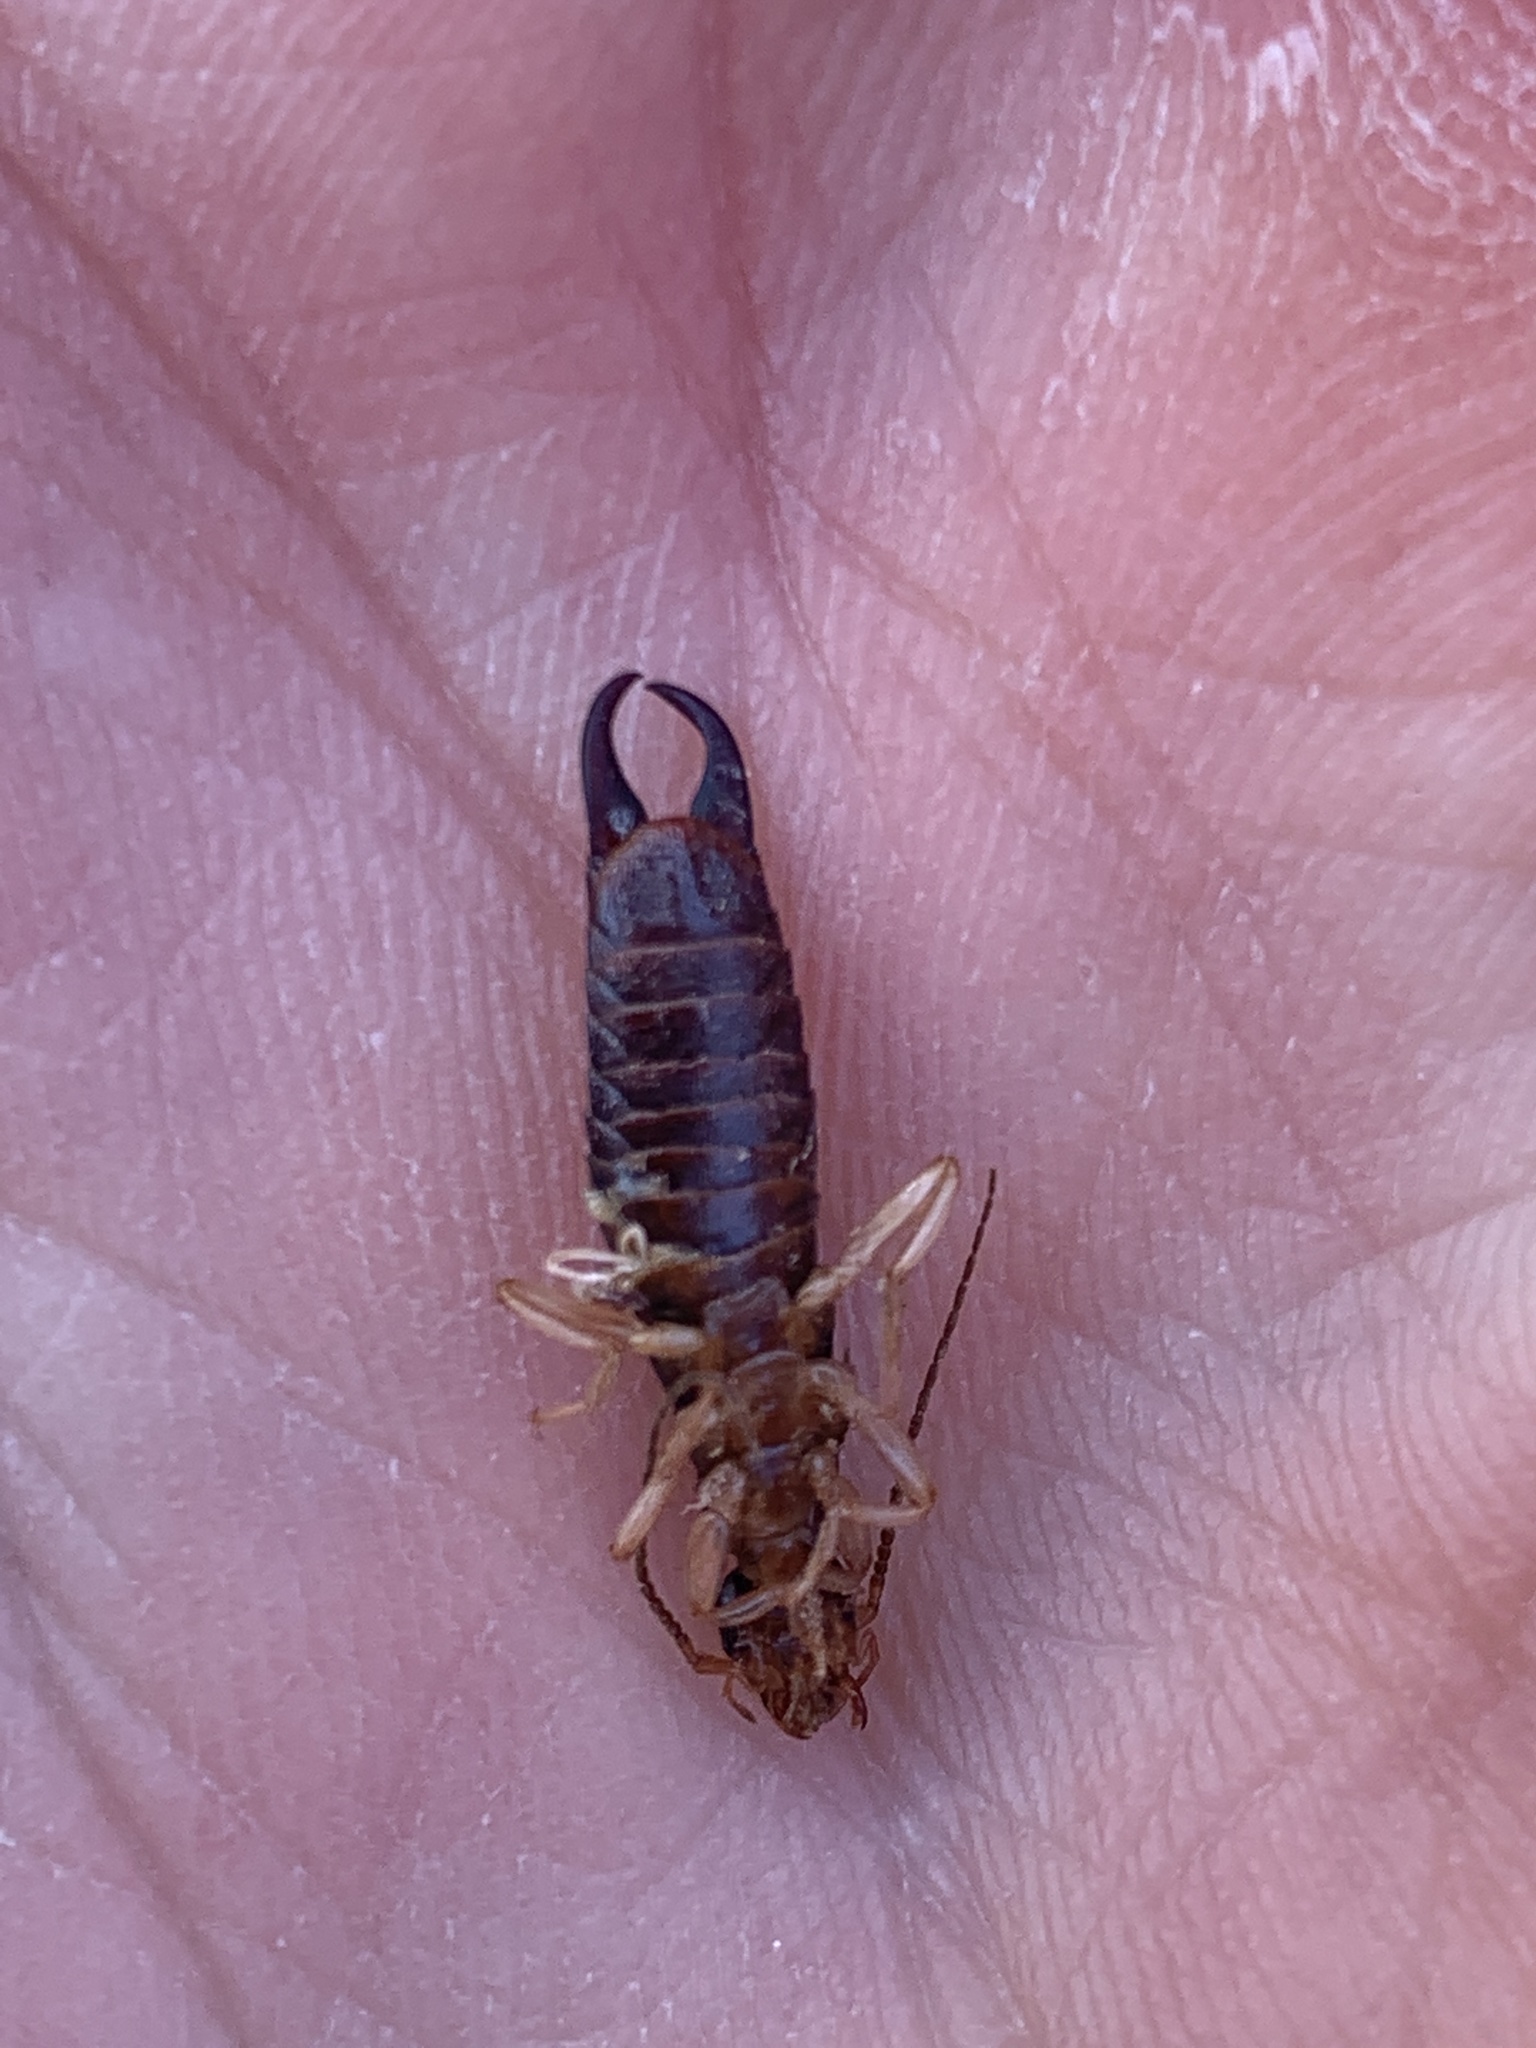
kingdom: Animalia
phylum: Arthropoda
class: Insecta
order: Dermaptera
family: Anisolabididae
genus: Anisolabis
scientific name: Anisolabis maritima
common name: Maritime earwig
